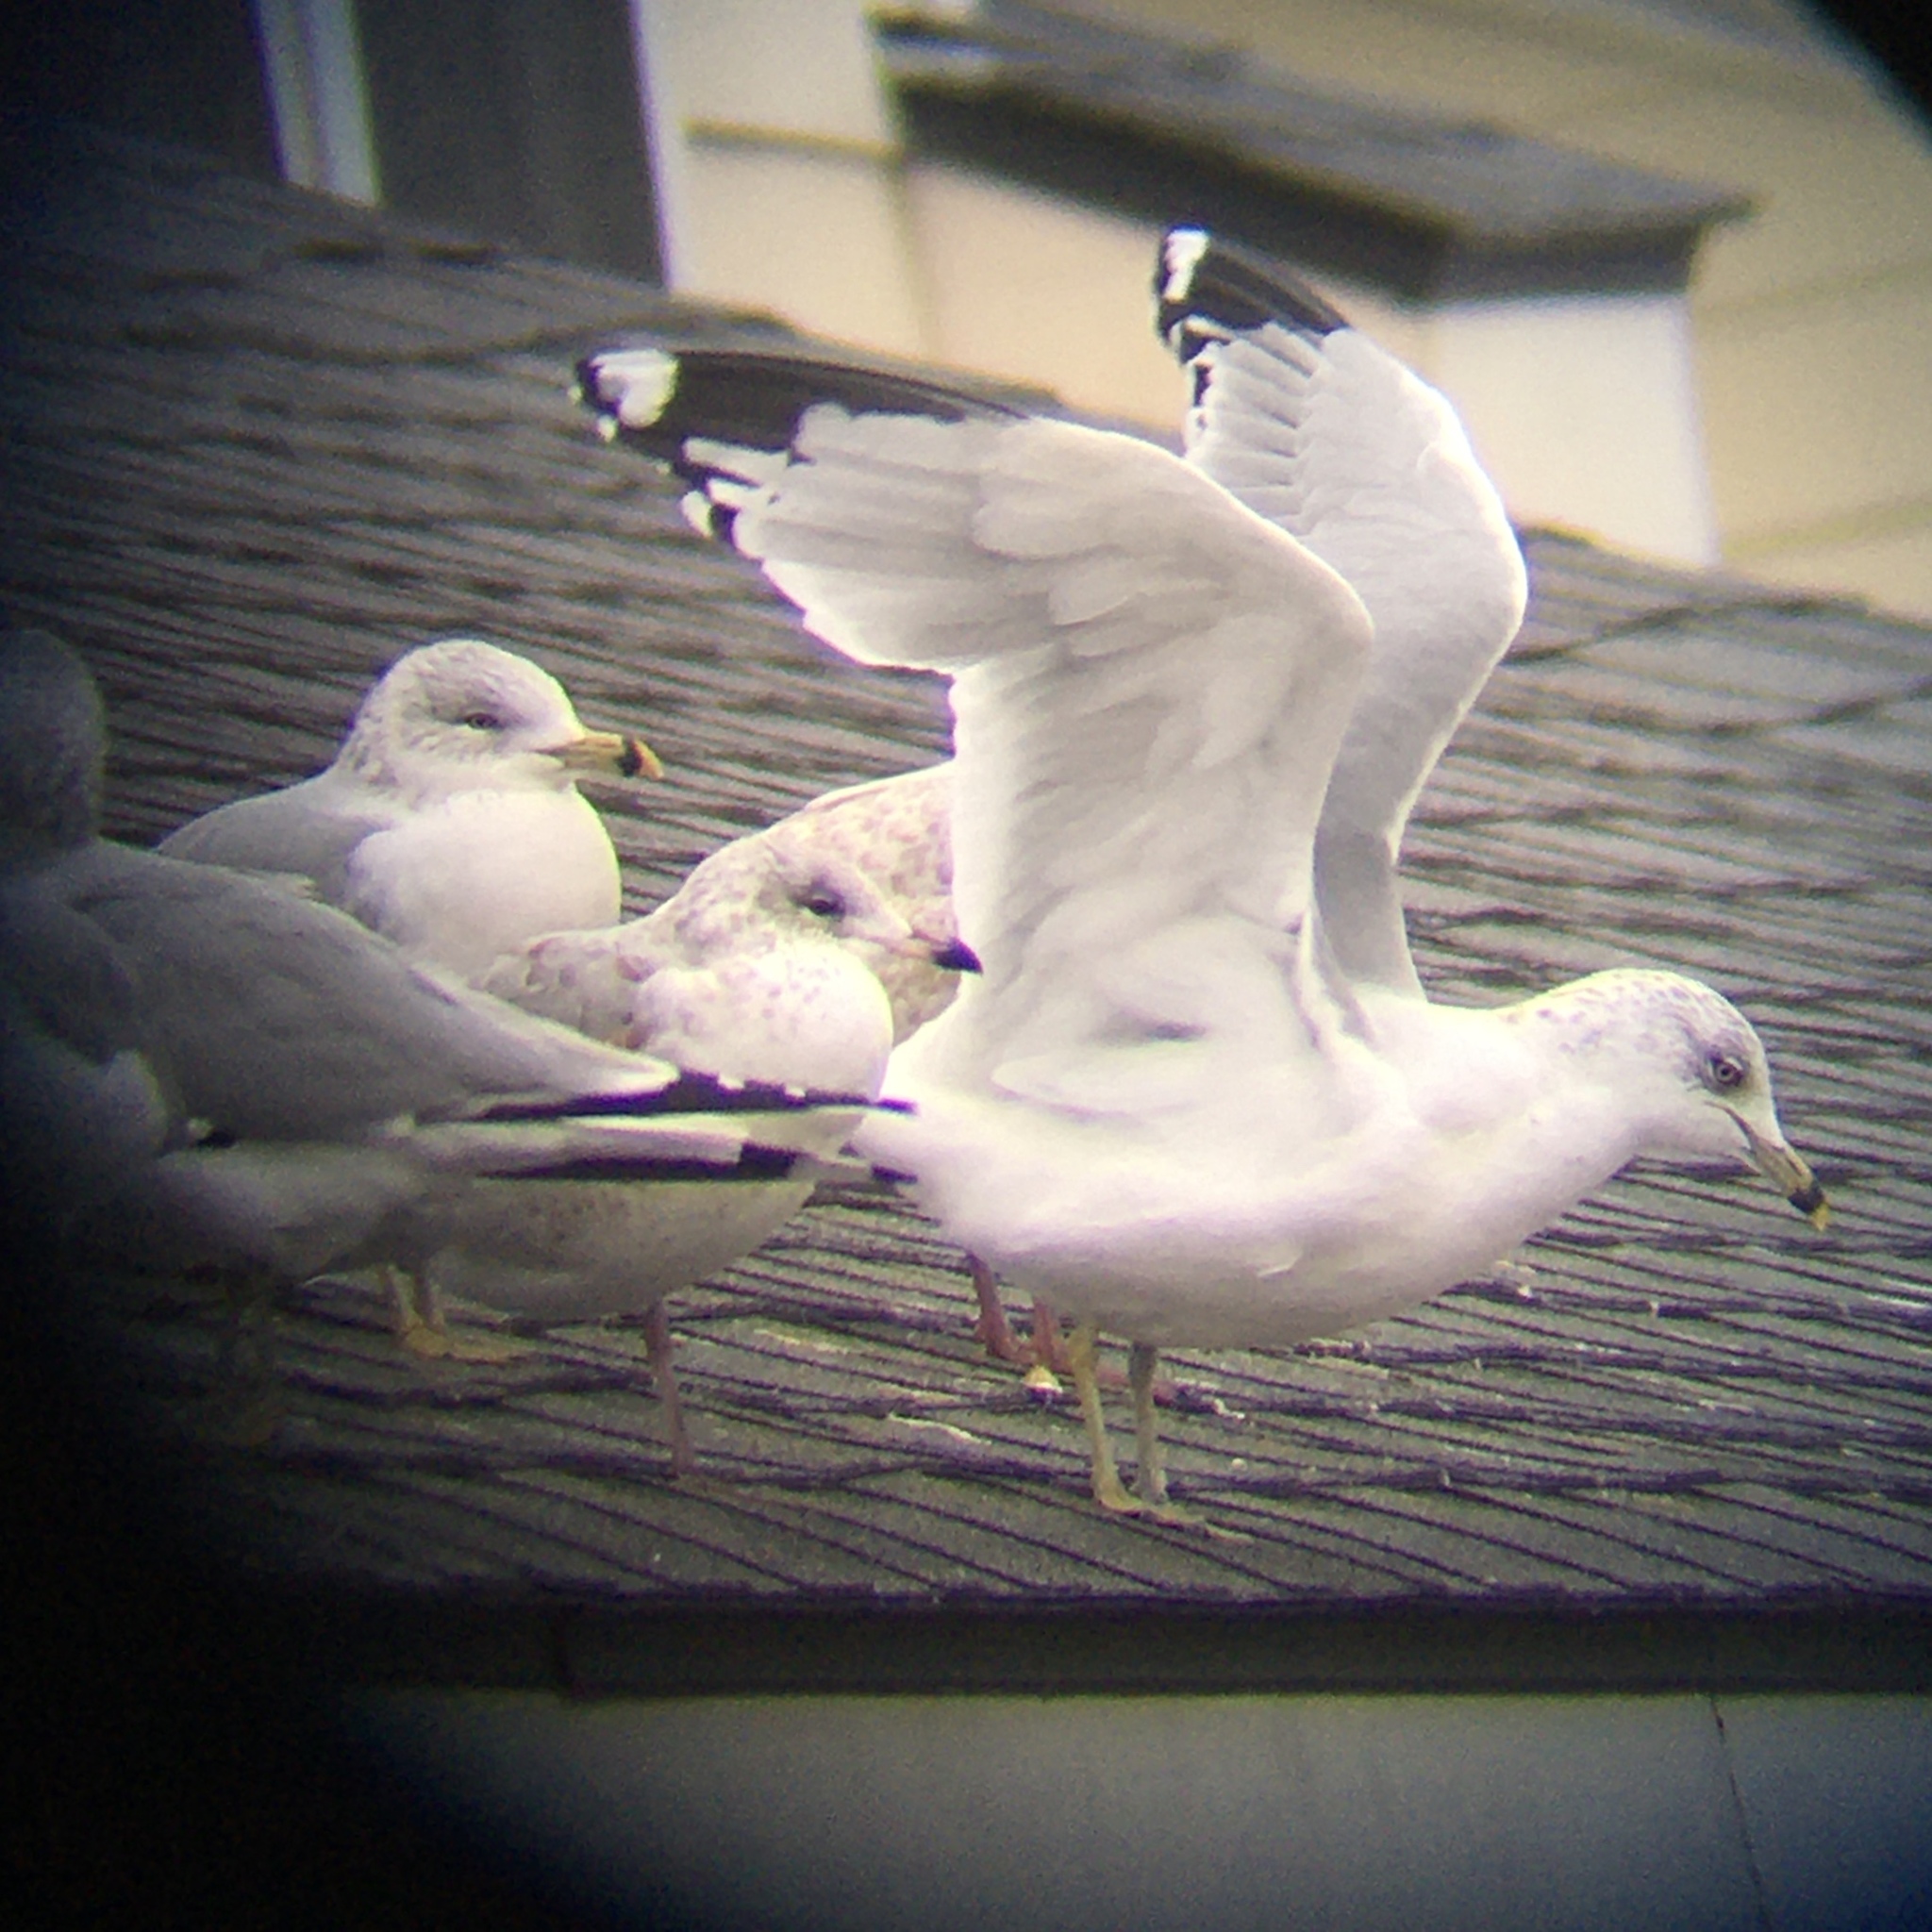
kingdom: Animalia
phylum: Chordata
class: Aves
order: Charadriiformes
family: Laridae
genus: Larus
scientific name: Larus delawarensis
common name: Ring-billed gull
